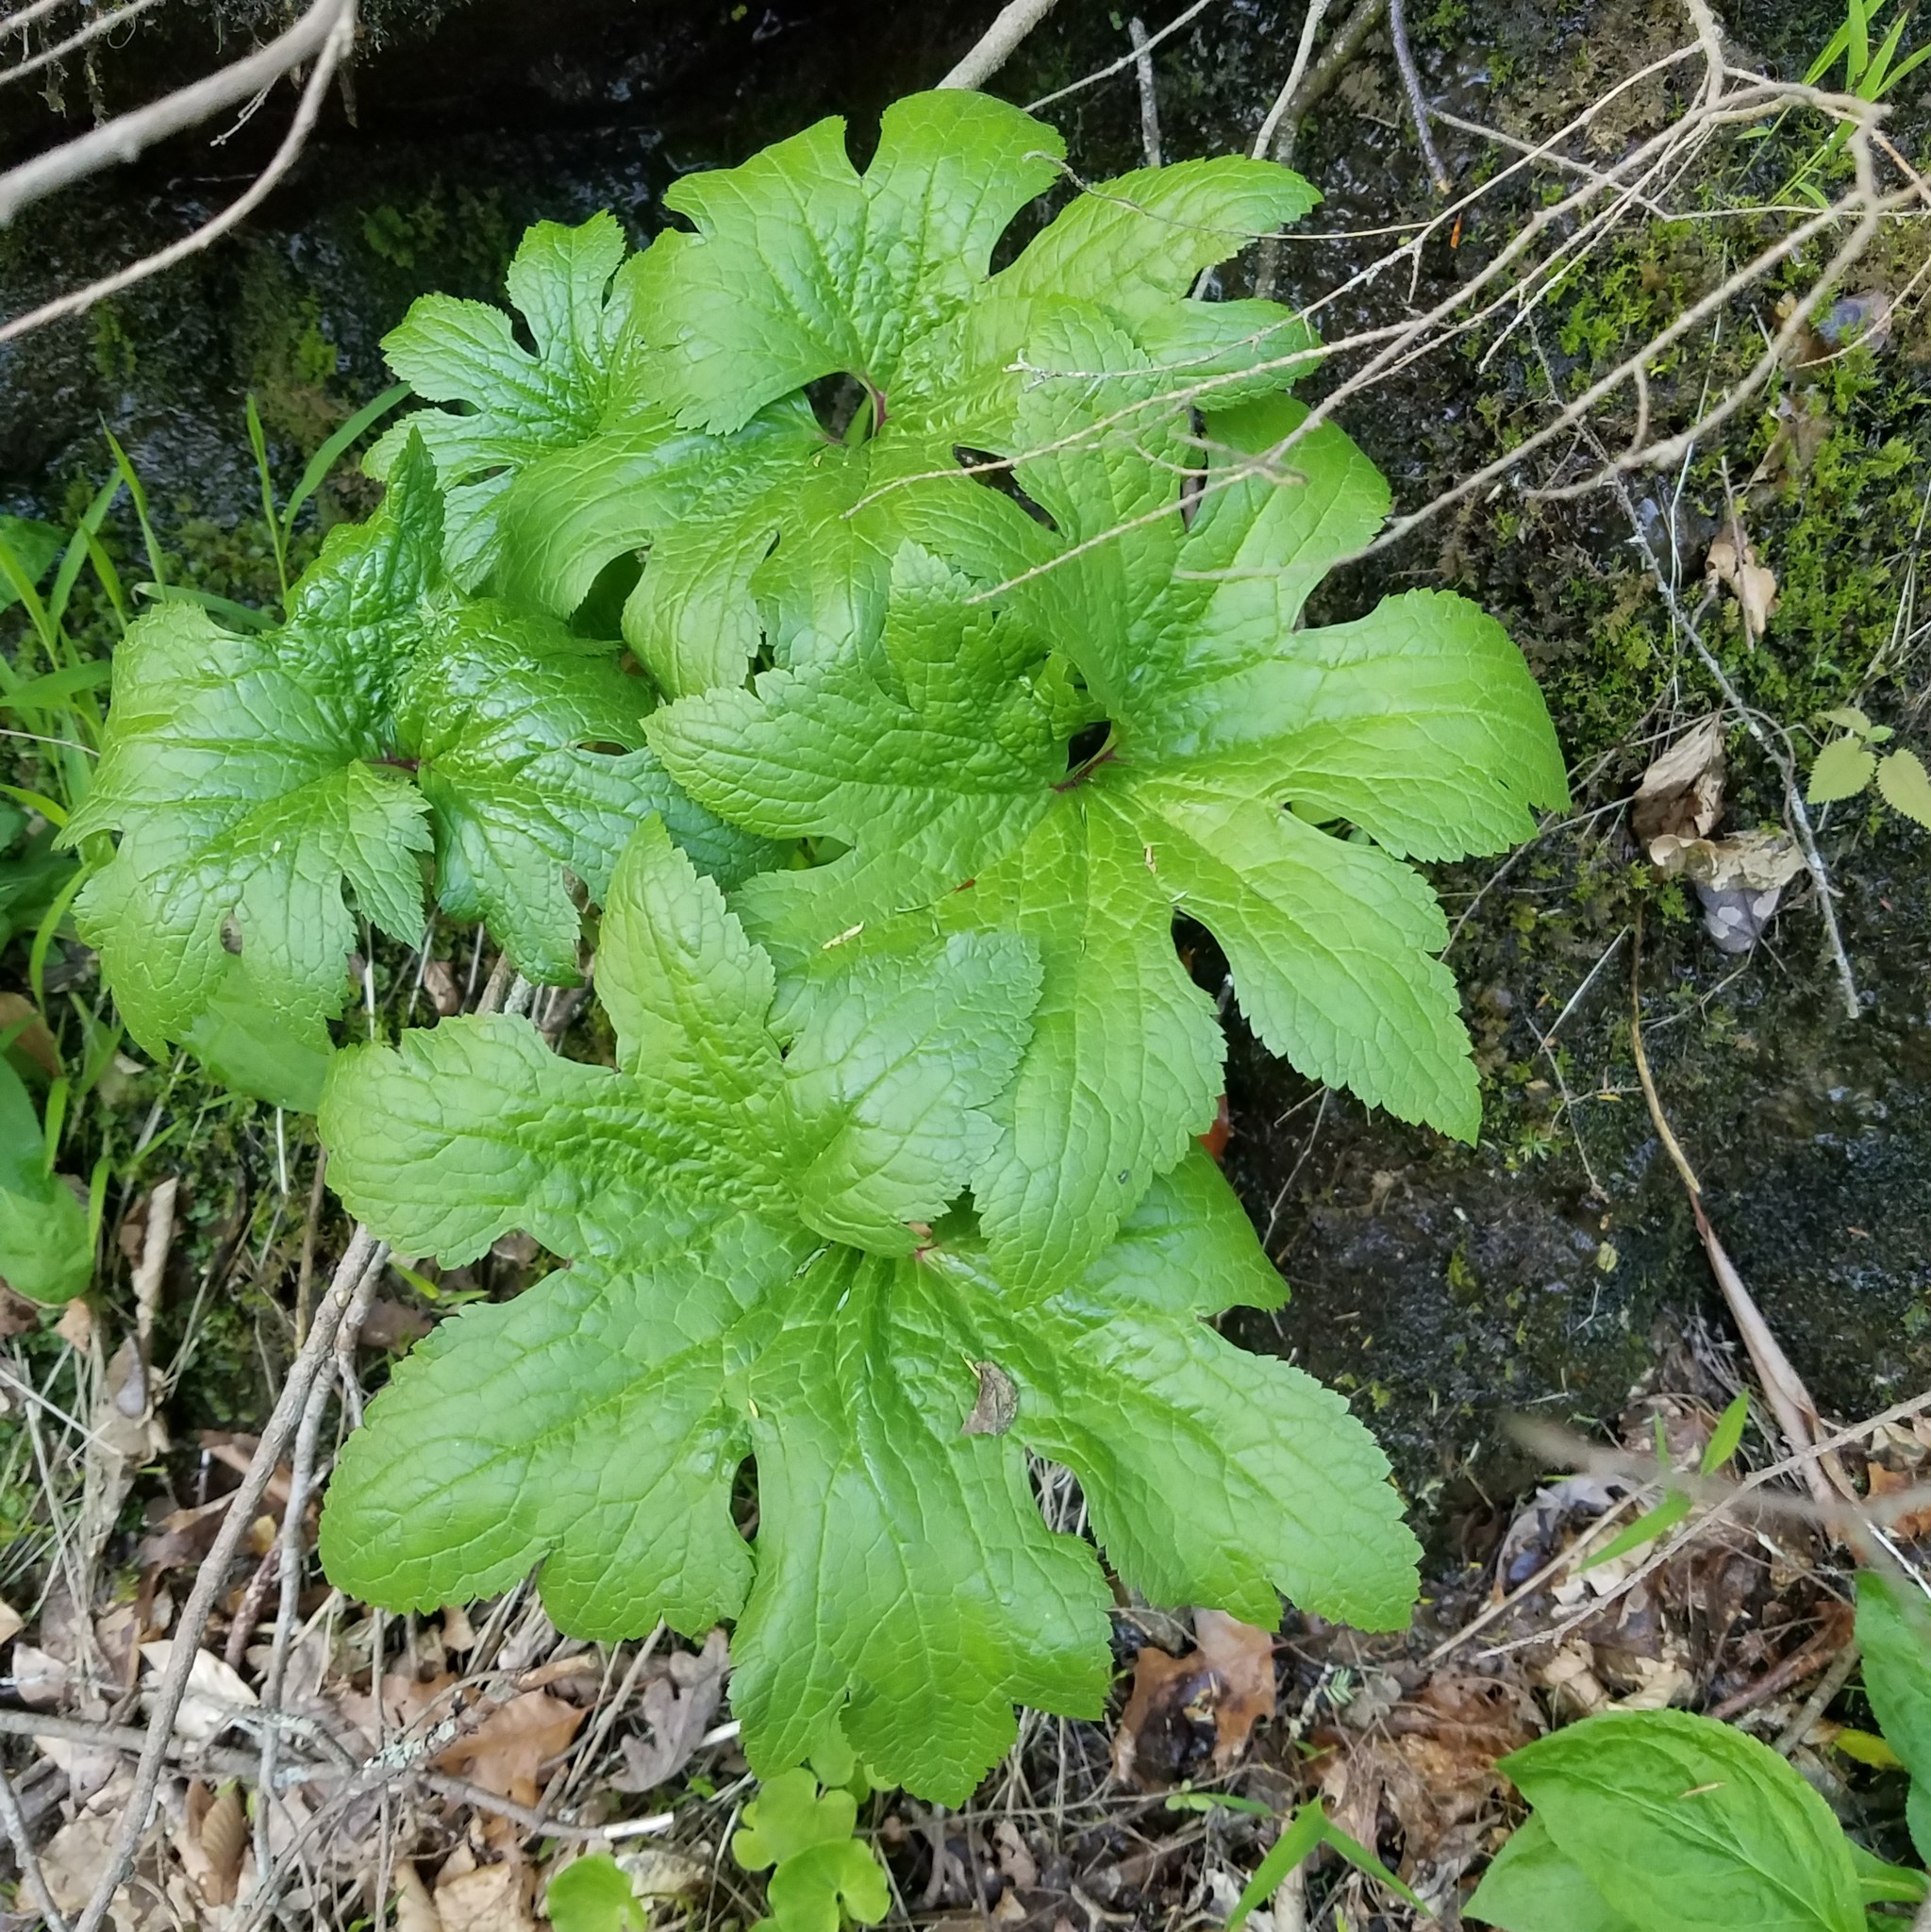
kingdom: Plantae
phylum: Tracheophyta
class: Magnoliopsida
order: Ranunculales
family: Ranunculaceae
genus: Trautvetteria
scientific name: Trautvetteria carolinensis
